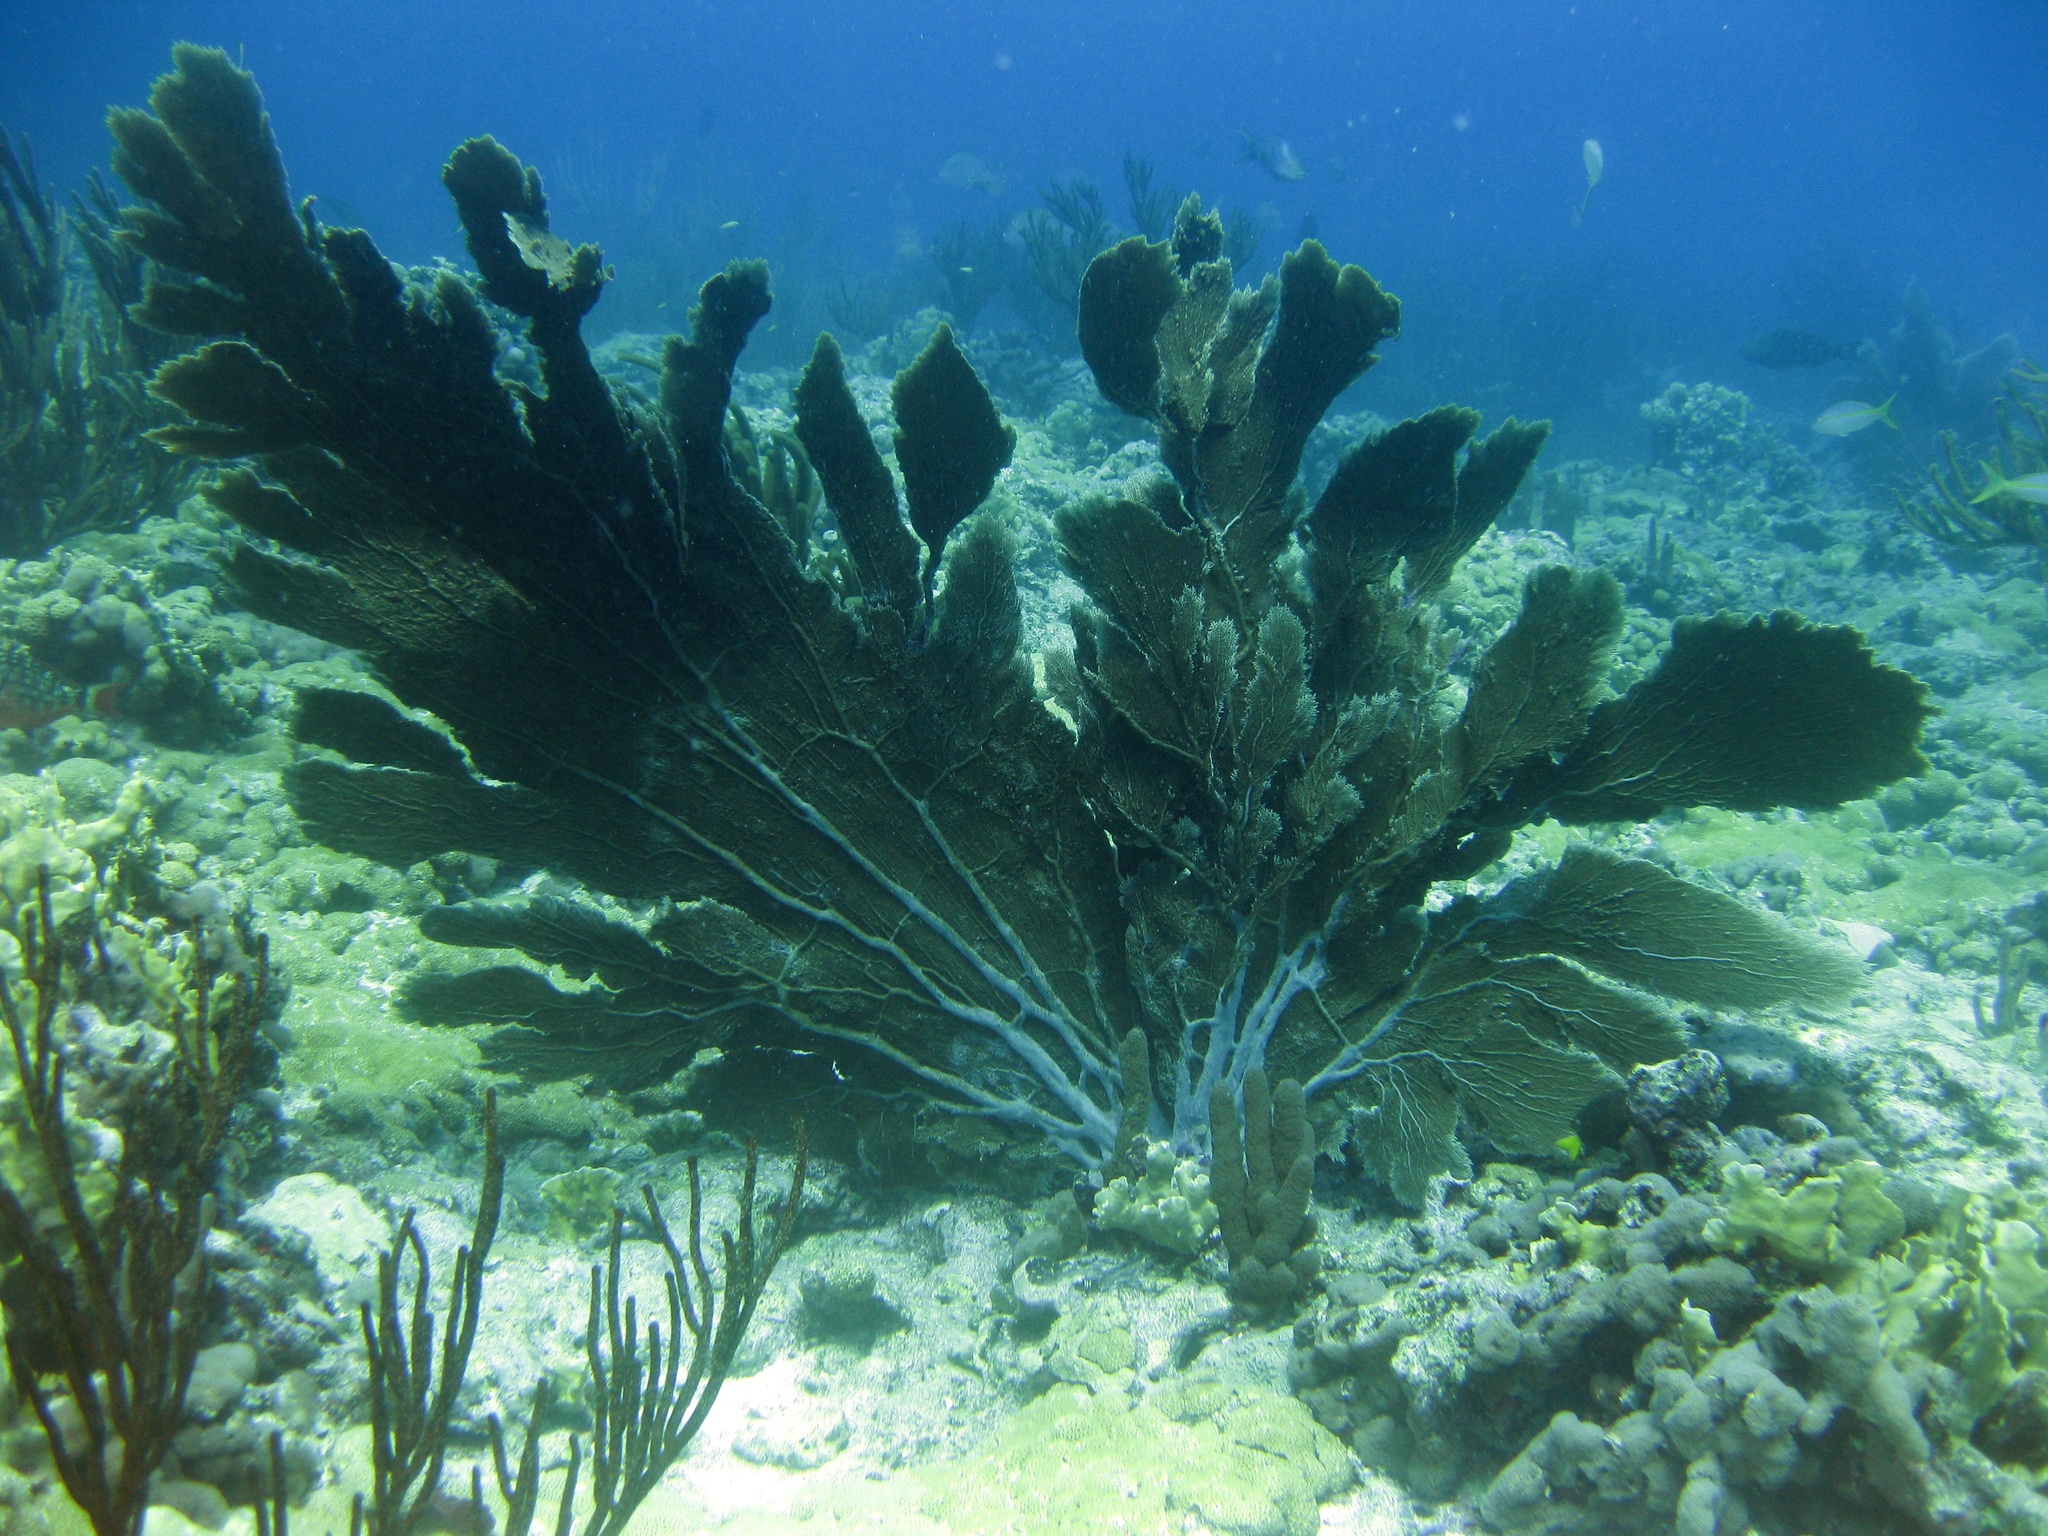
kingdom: Animalia
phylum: Cnidaria
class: Anthozoa
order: Malacalcyonacea
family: Gorgoniidae
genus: Gorgonia
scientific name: Gorgonia ventalina
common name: Common sea fan
